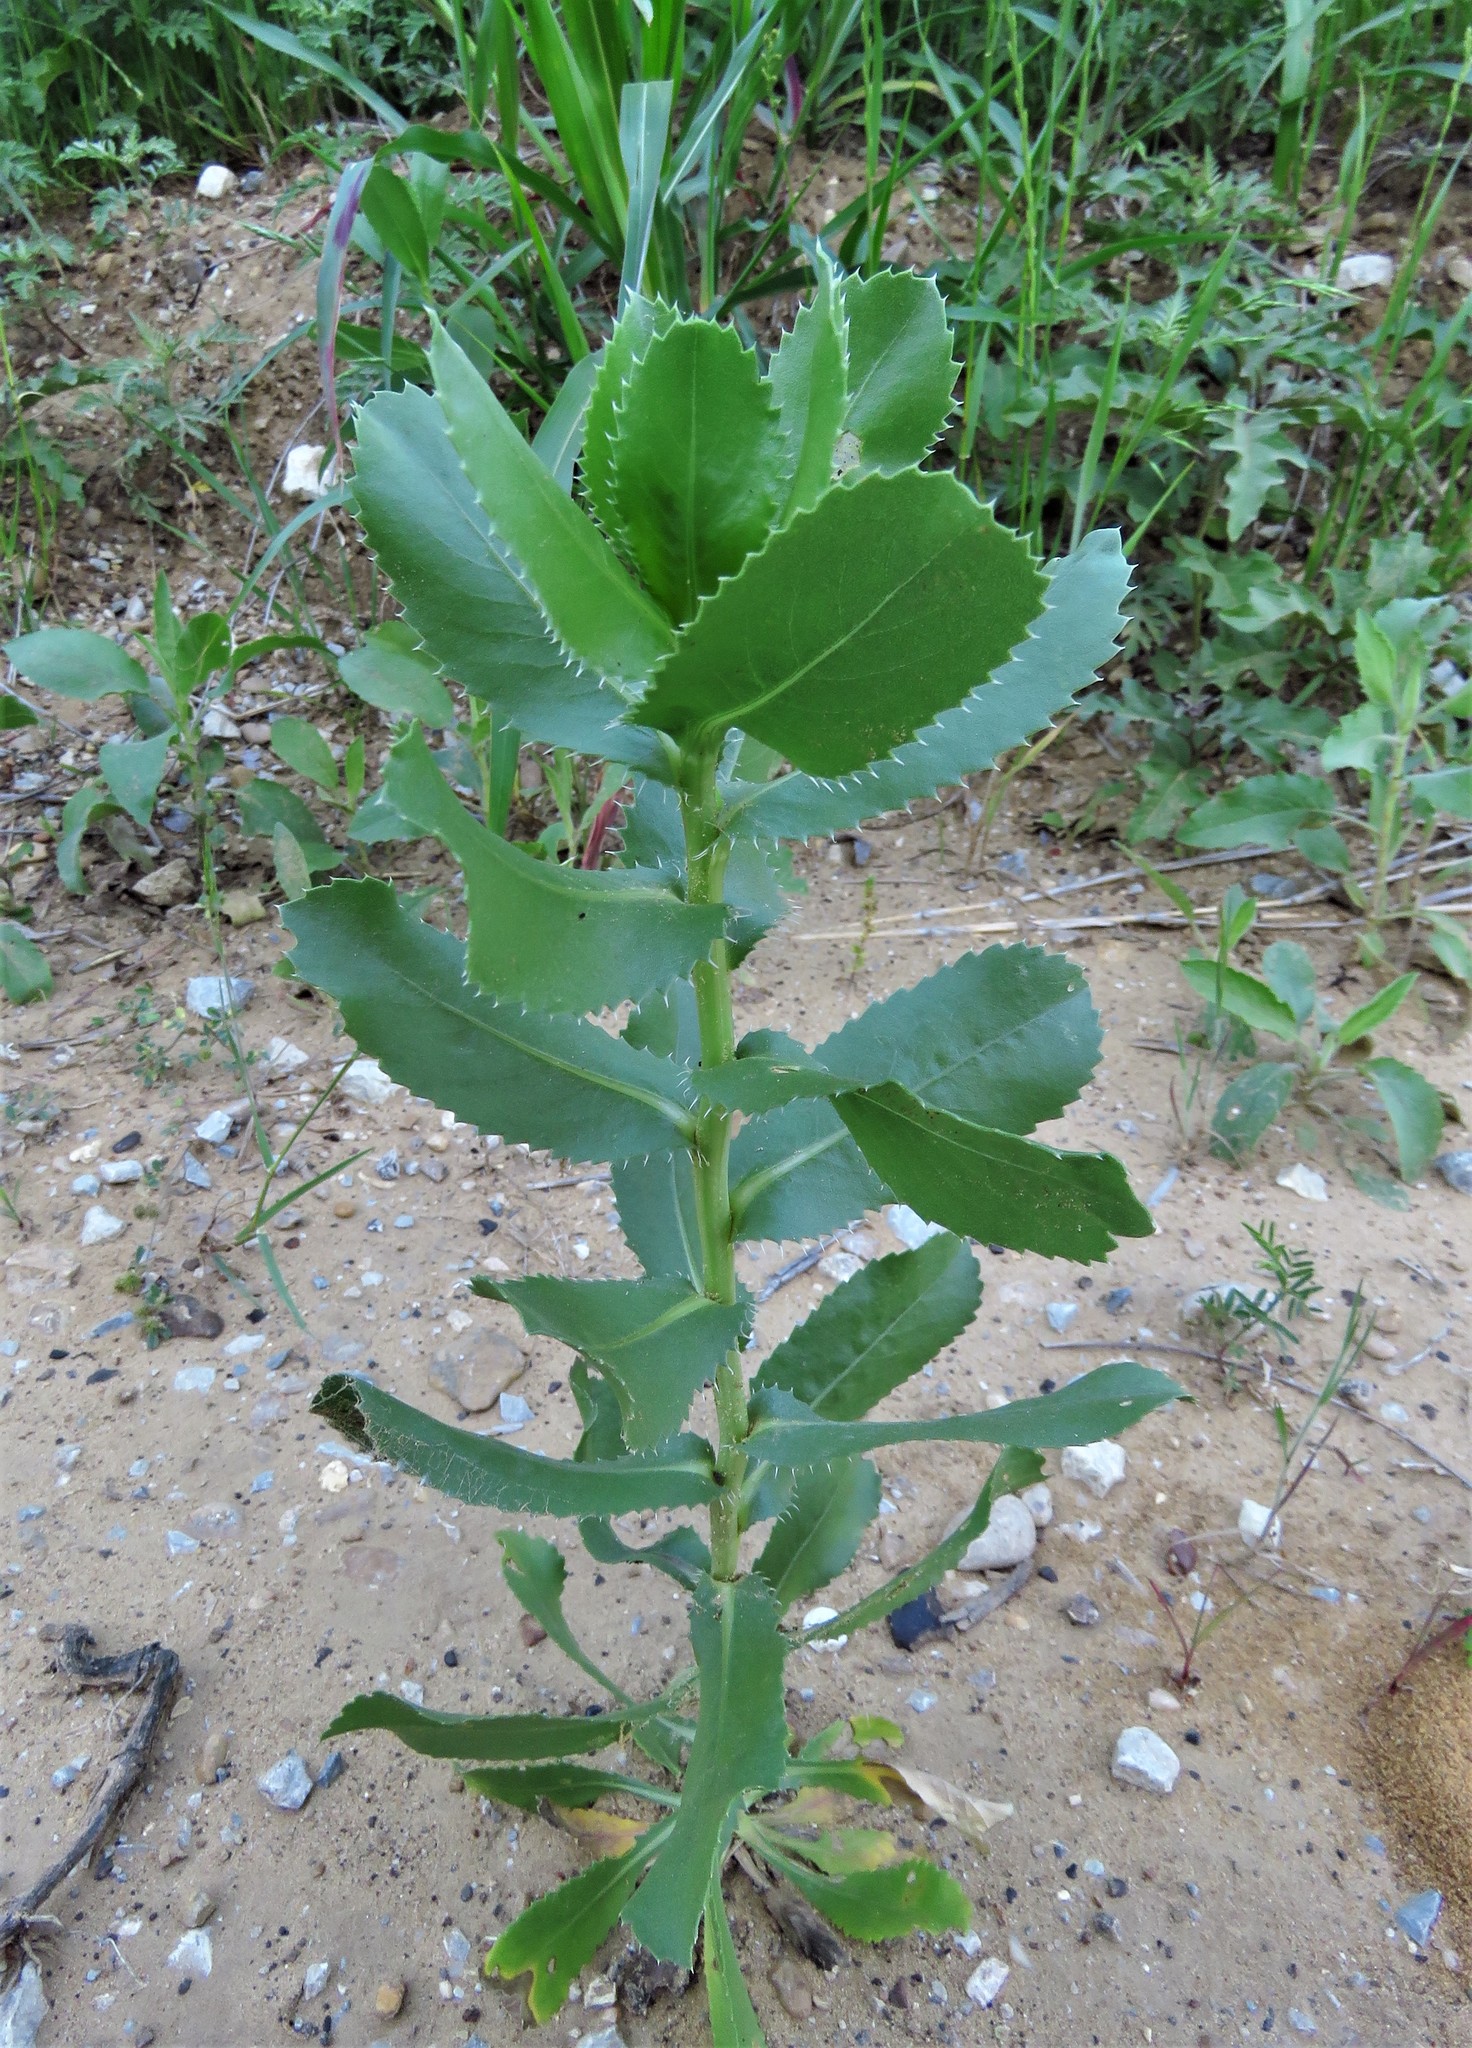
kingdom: Plantae
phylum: Tracheophyta
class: Magnoliopsida
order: Asterales
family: Asteraceae
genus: Grindelia
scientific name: Grindelia ciliata
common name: Goldenweed
